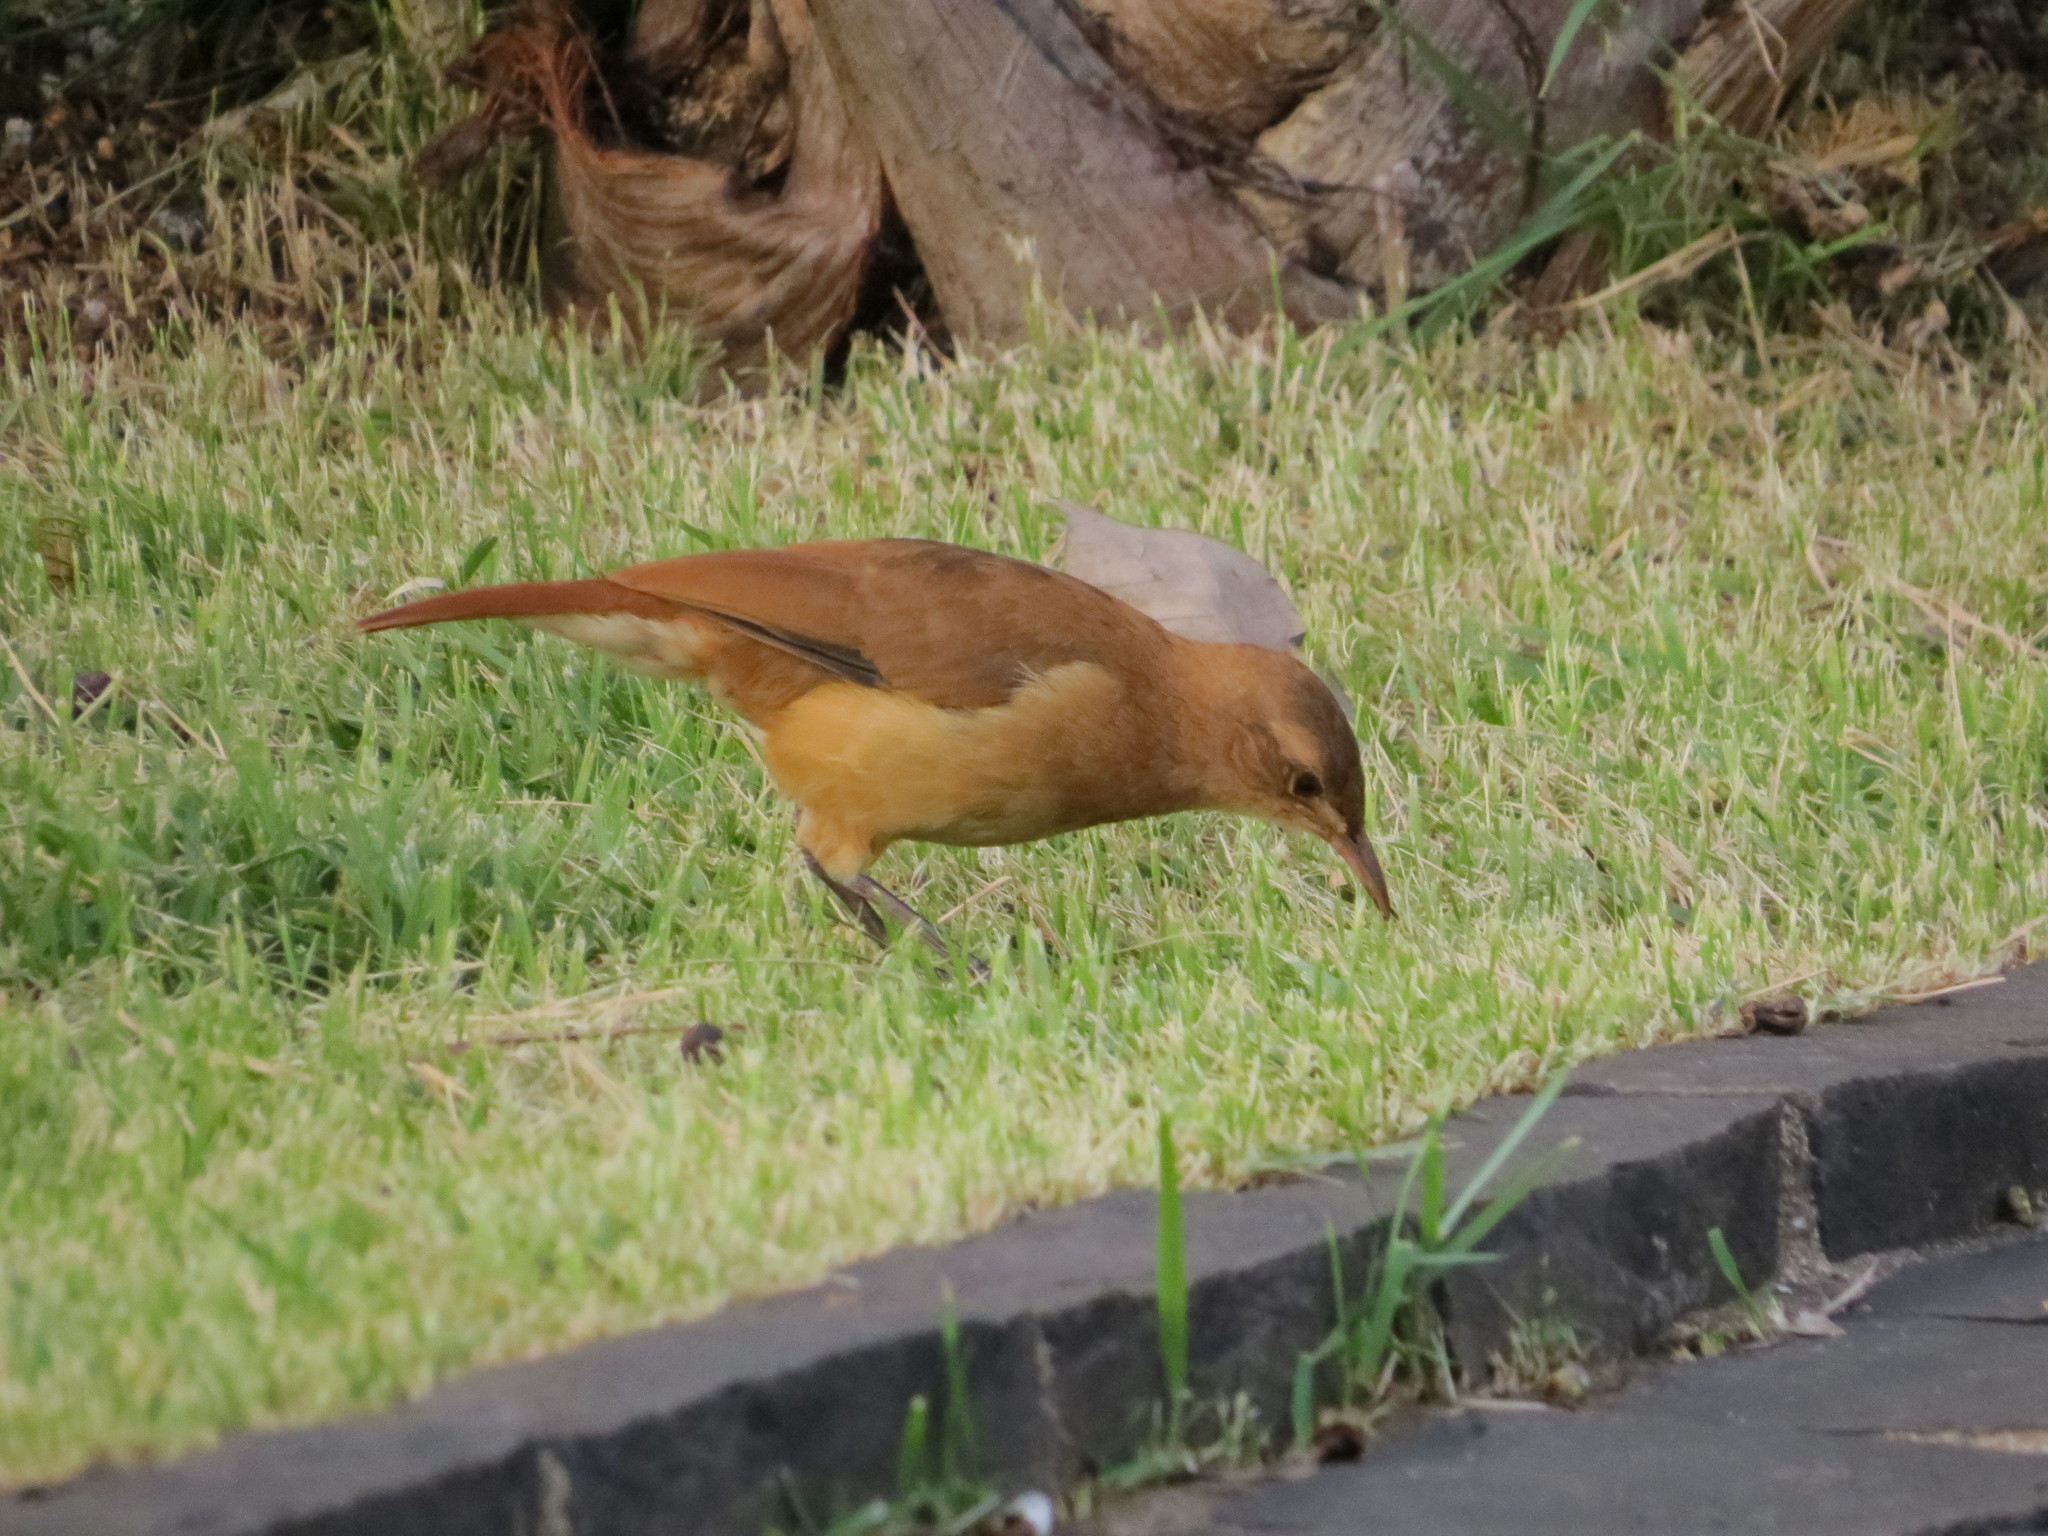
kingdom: Animalia
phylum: Chordata
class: Aves
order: Passeriformes
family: Furnariidae
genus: Furnarius
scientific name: Furnarius rufus
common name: Rufous hornero
